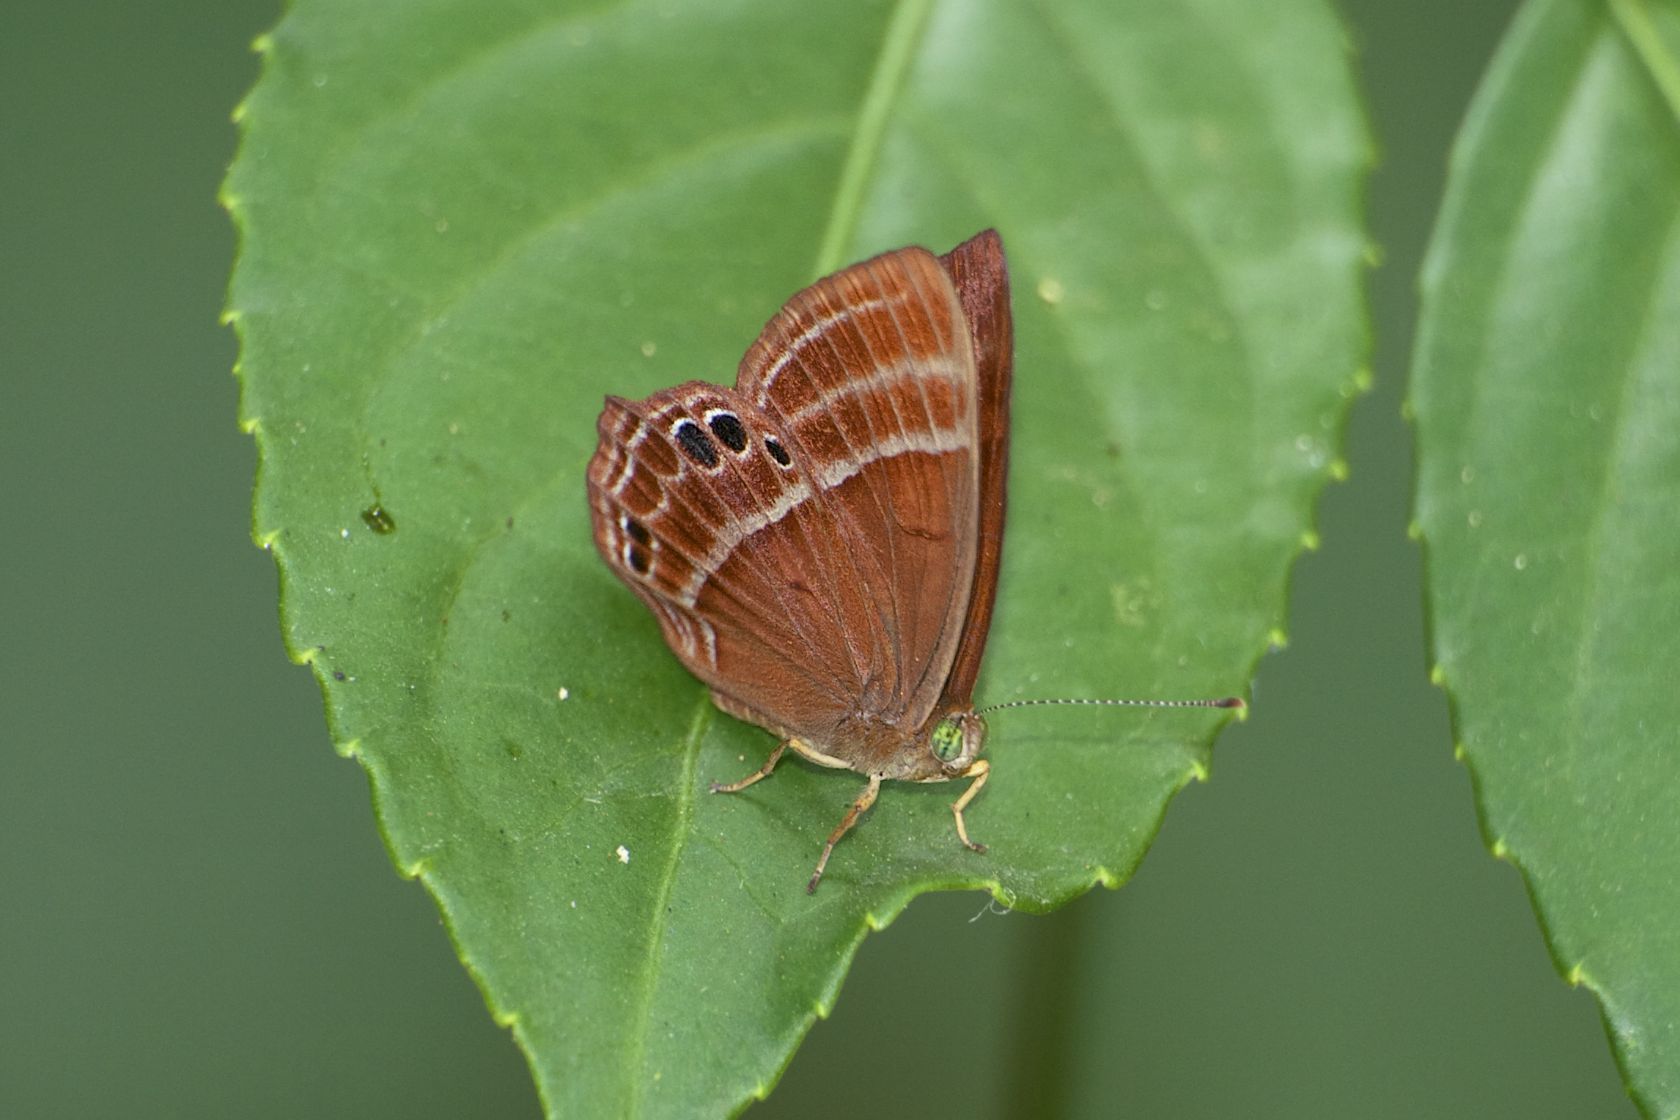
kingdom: Animalia
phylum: Arthropoda
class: Insecta
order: Lepidoptera
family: Lycaenidae
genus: Abisara
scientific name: Abisara echeria
